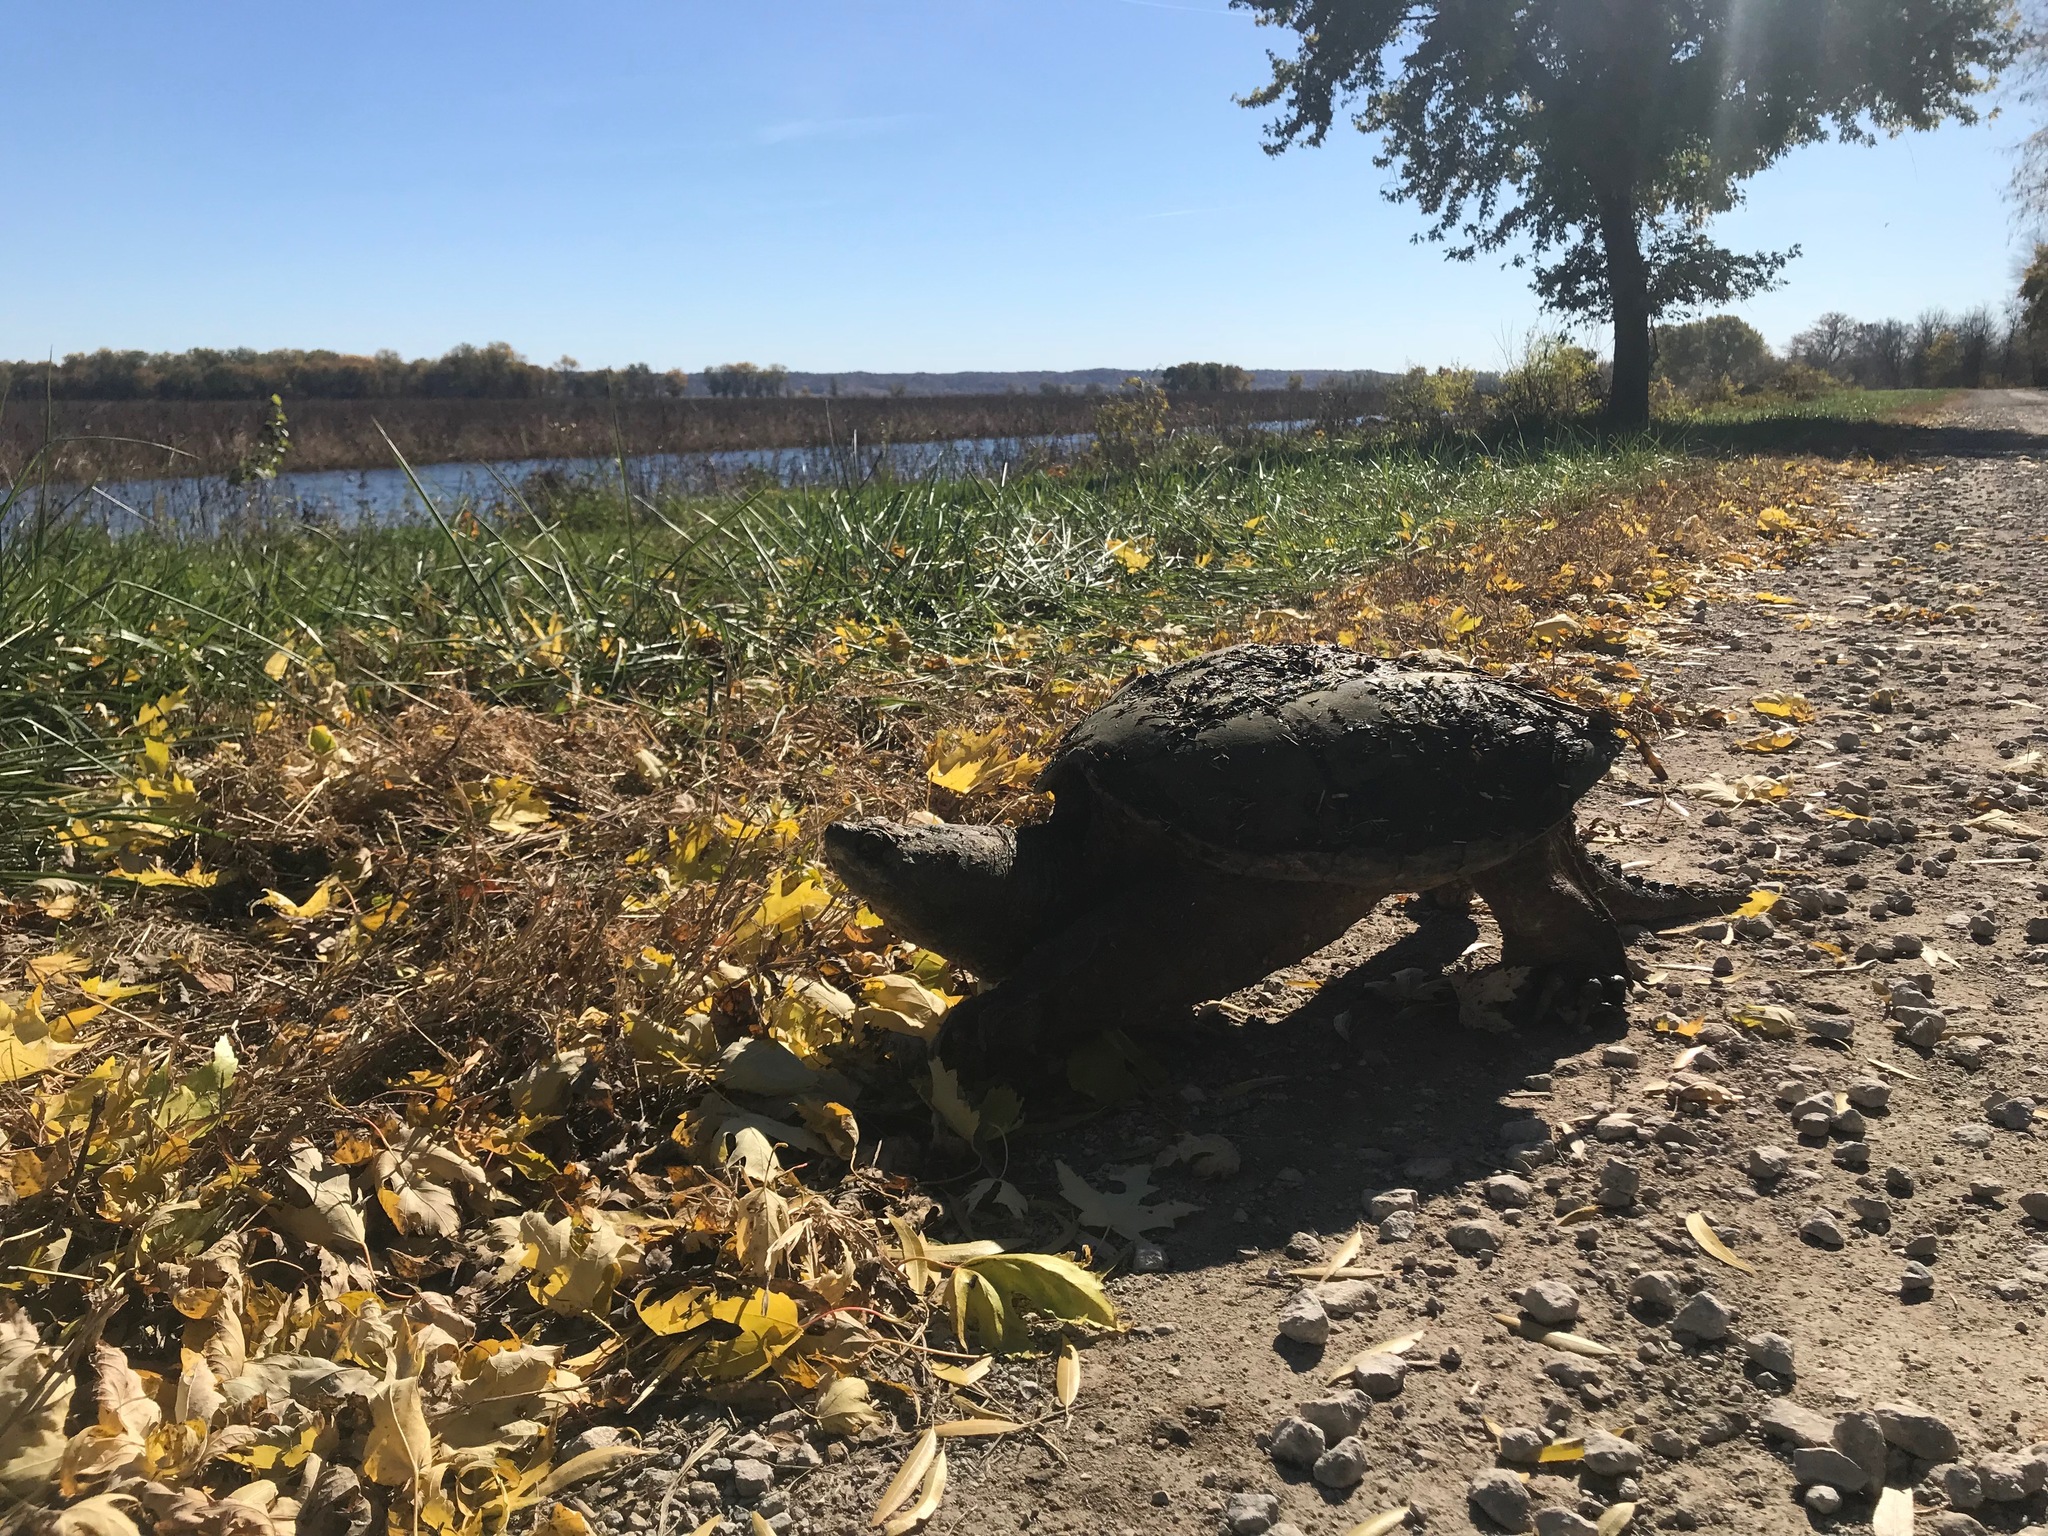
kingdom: Animalia
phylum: Chordata
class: Testudines
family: Chelydridae
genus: Chelydra
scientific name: Chelydra serpentina
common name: Common snapping turtle
